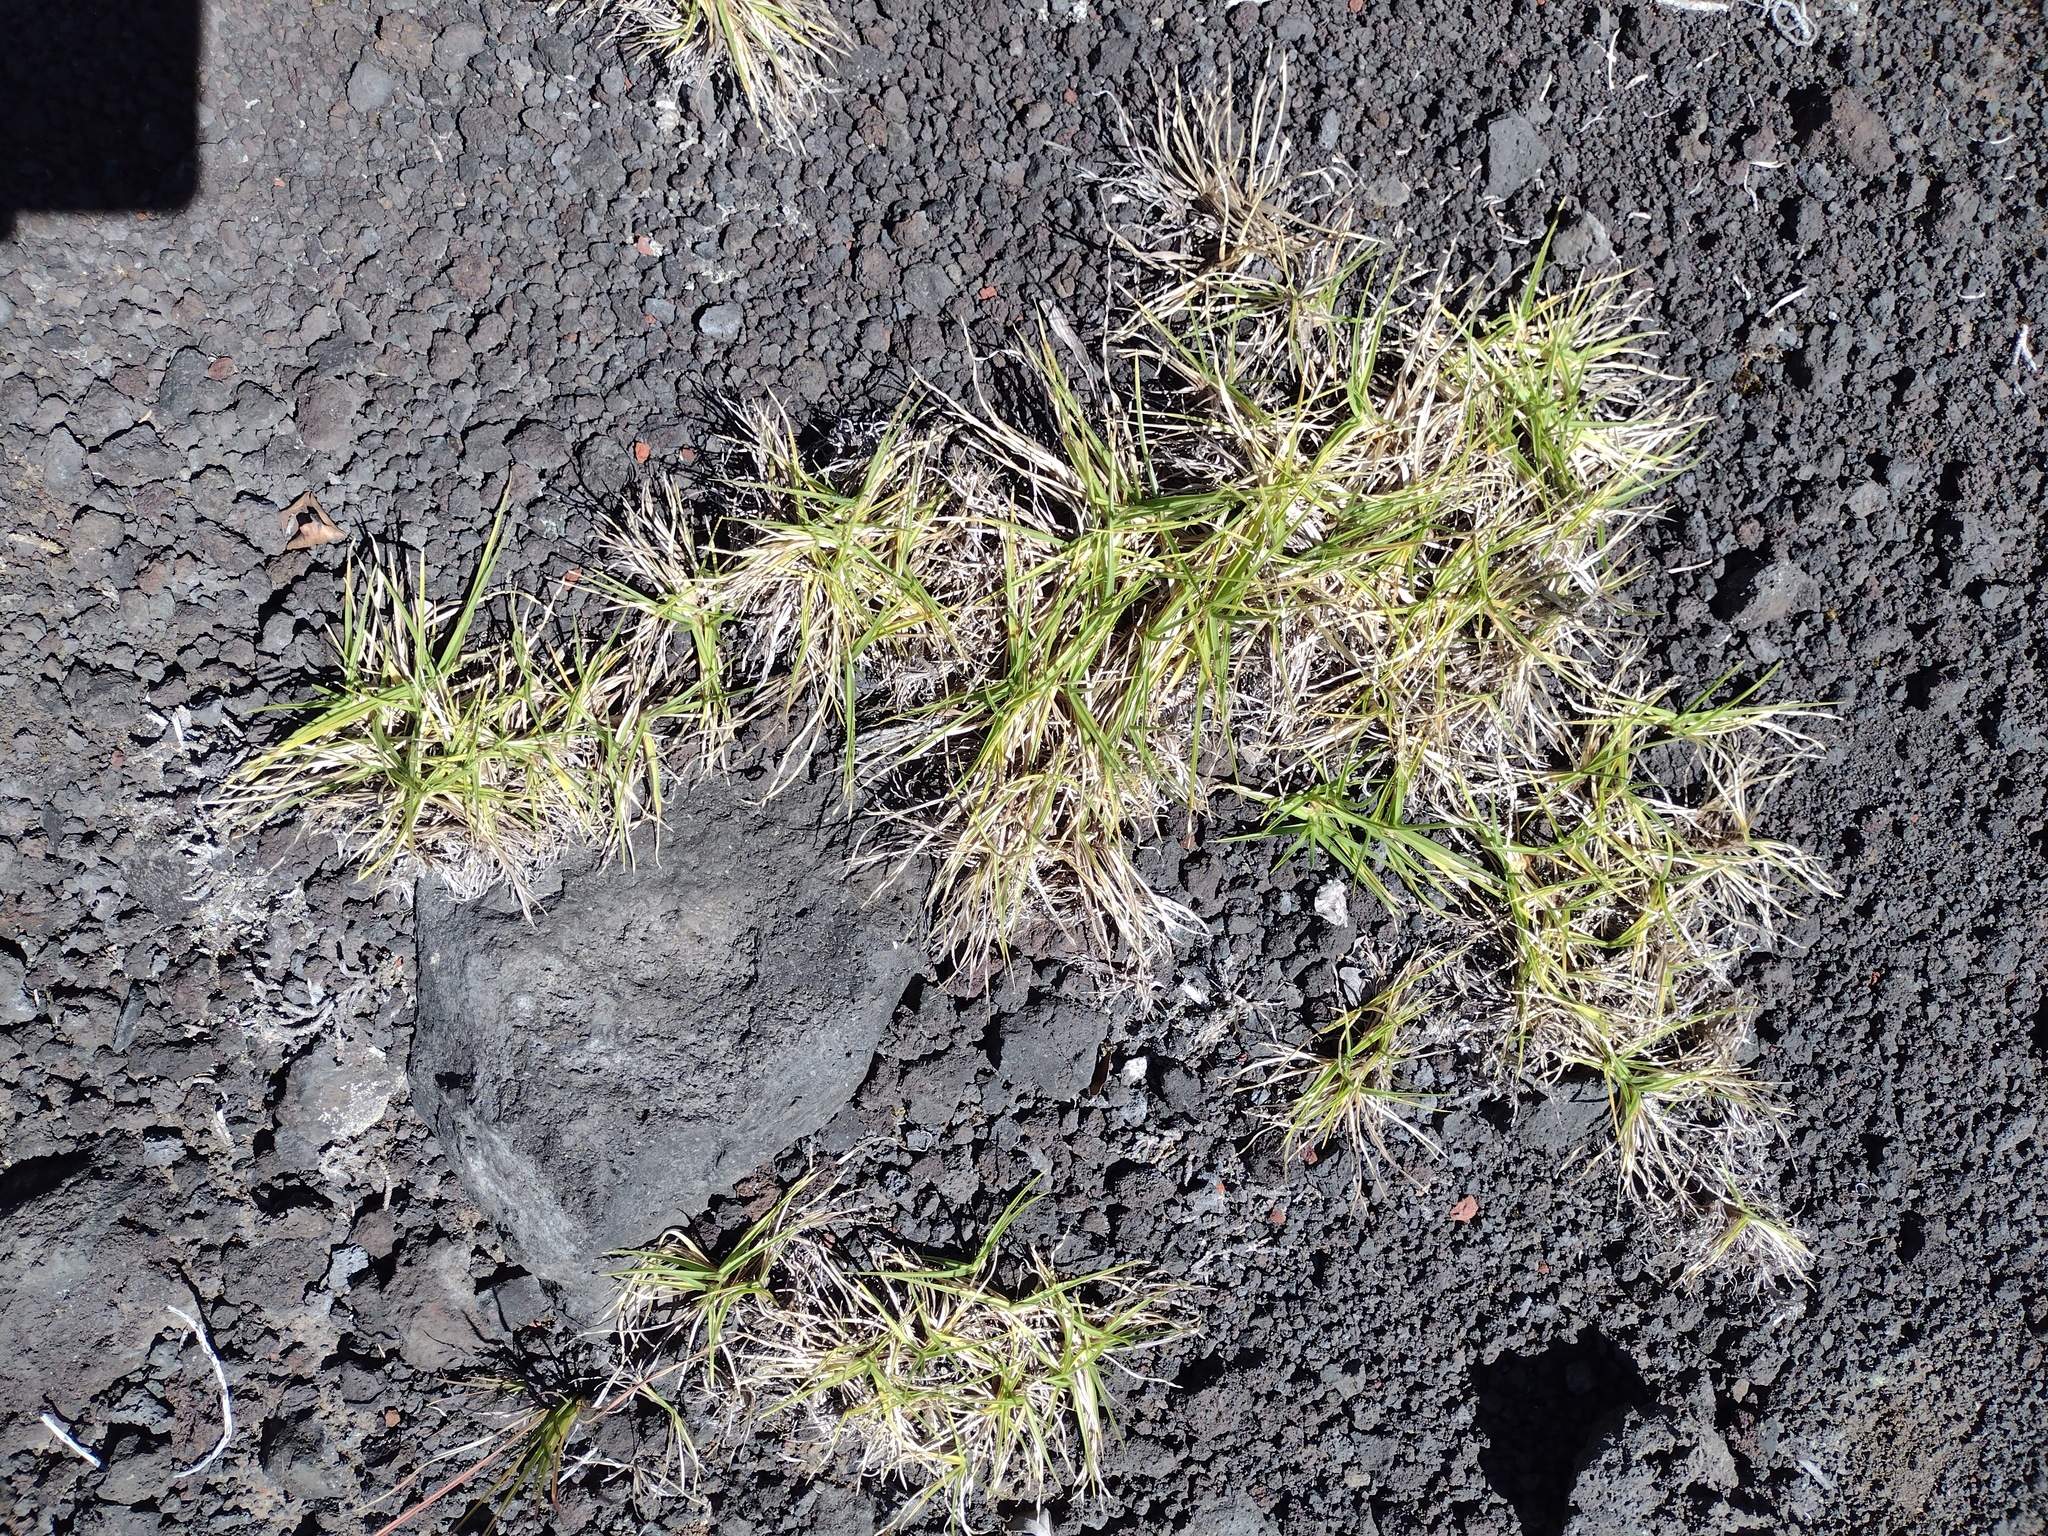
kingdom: Plantae
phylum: Tracheophyta
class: Liliopsida
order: Poales
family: Poaceae
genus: Cenchrus
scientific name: Cenchrus clandestinus
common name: Kikuyugrass
